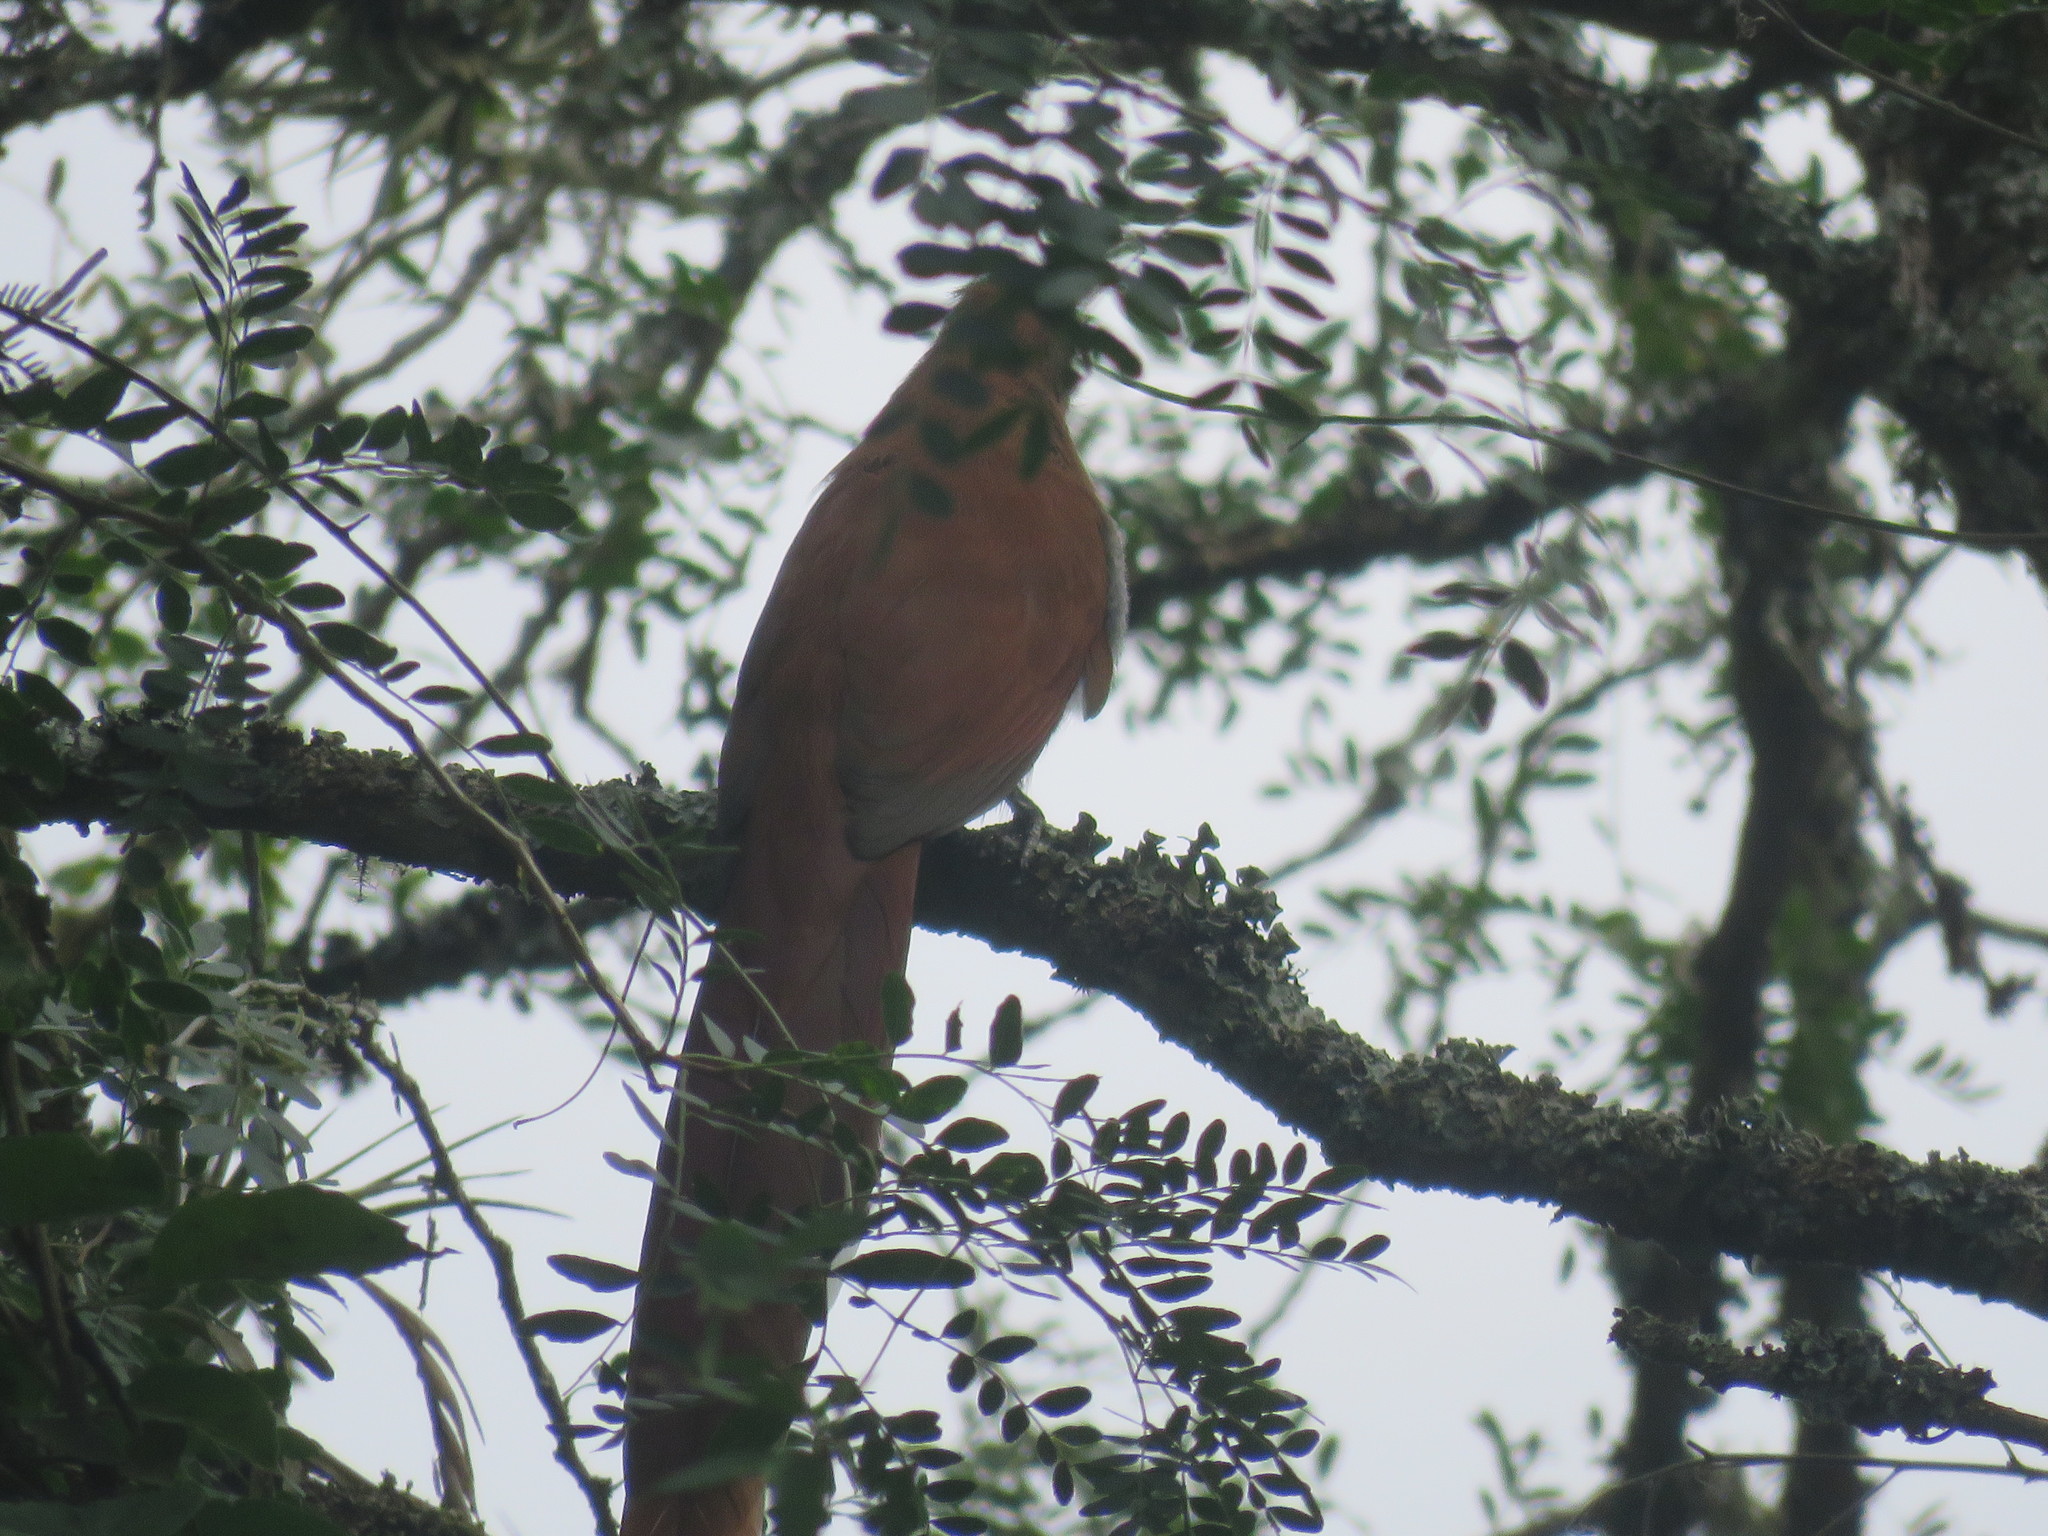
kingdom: Animalia
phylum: Chordata
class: Aves
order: Cuculiformes
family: Cuculidae
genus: Piaya
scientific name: Piaya cayana
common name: Squirrel cuckoo
